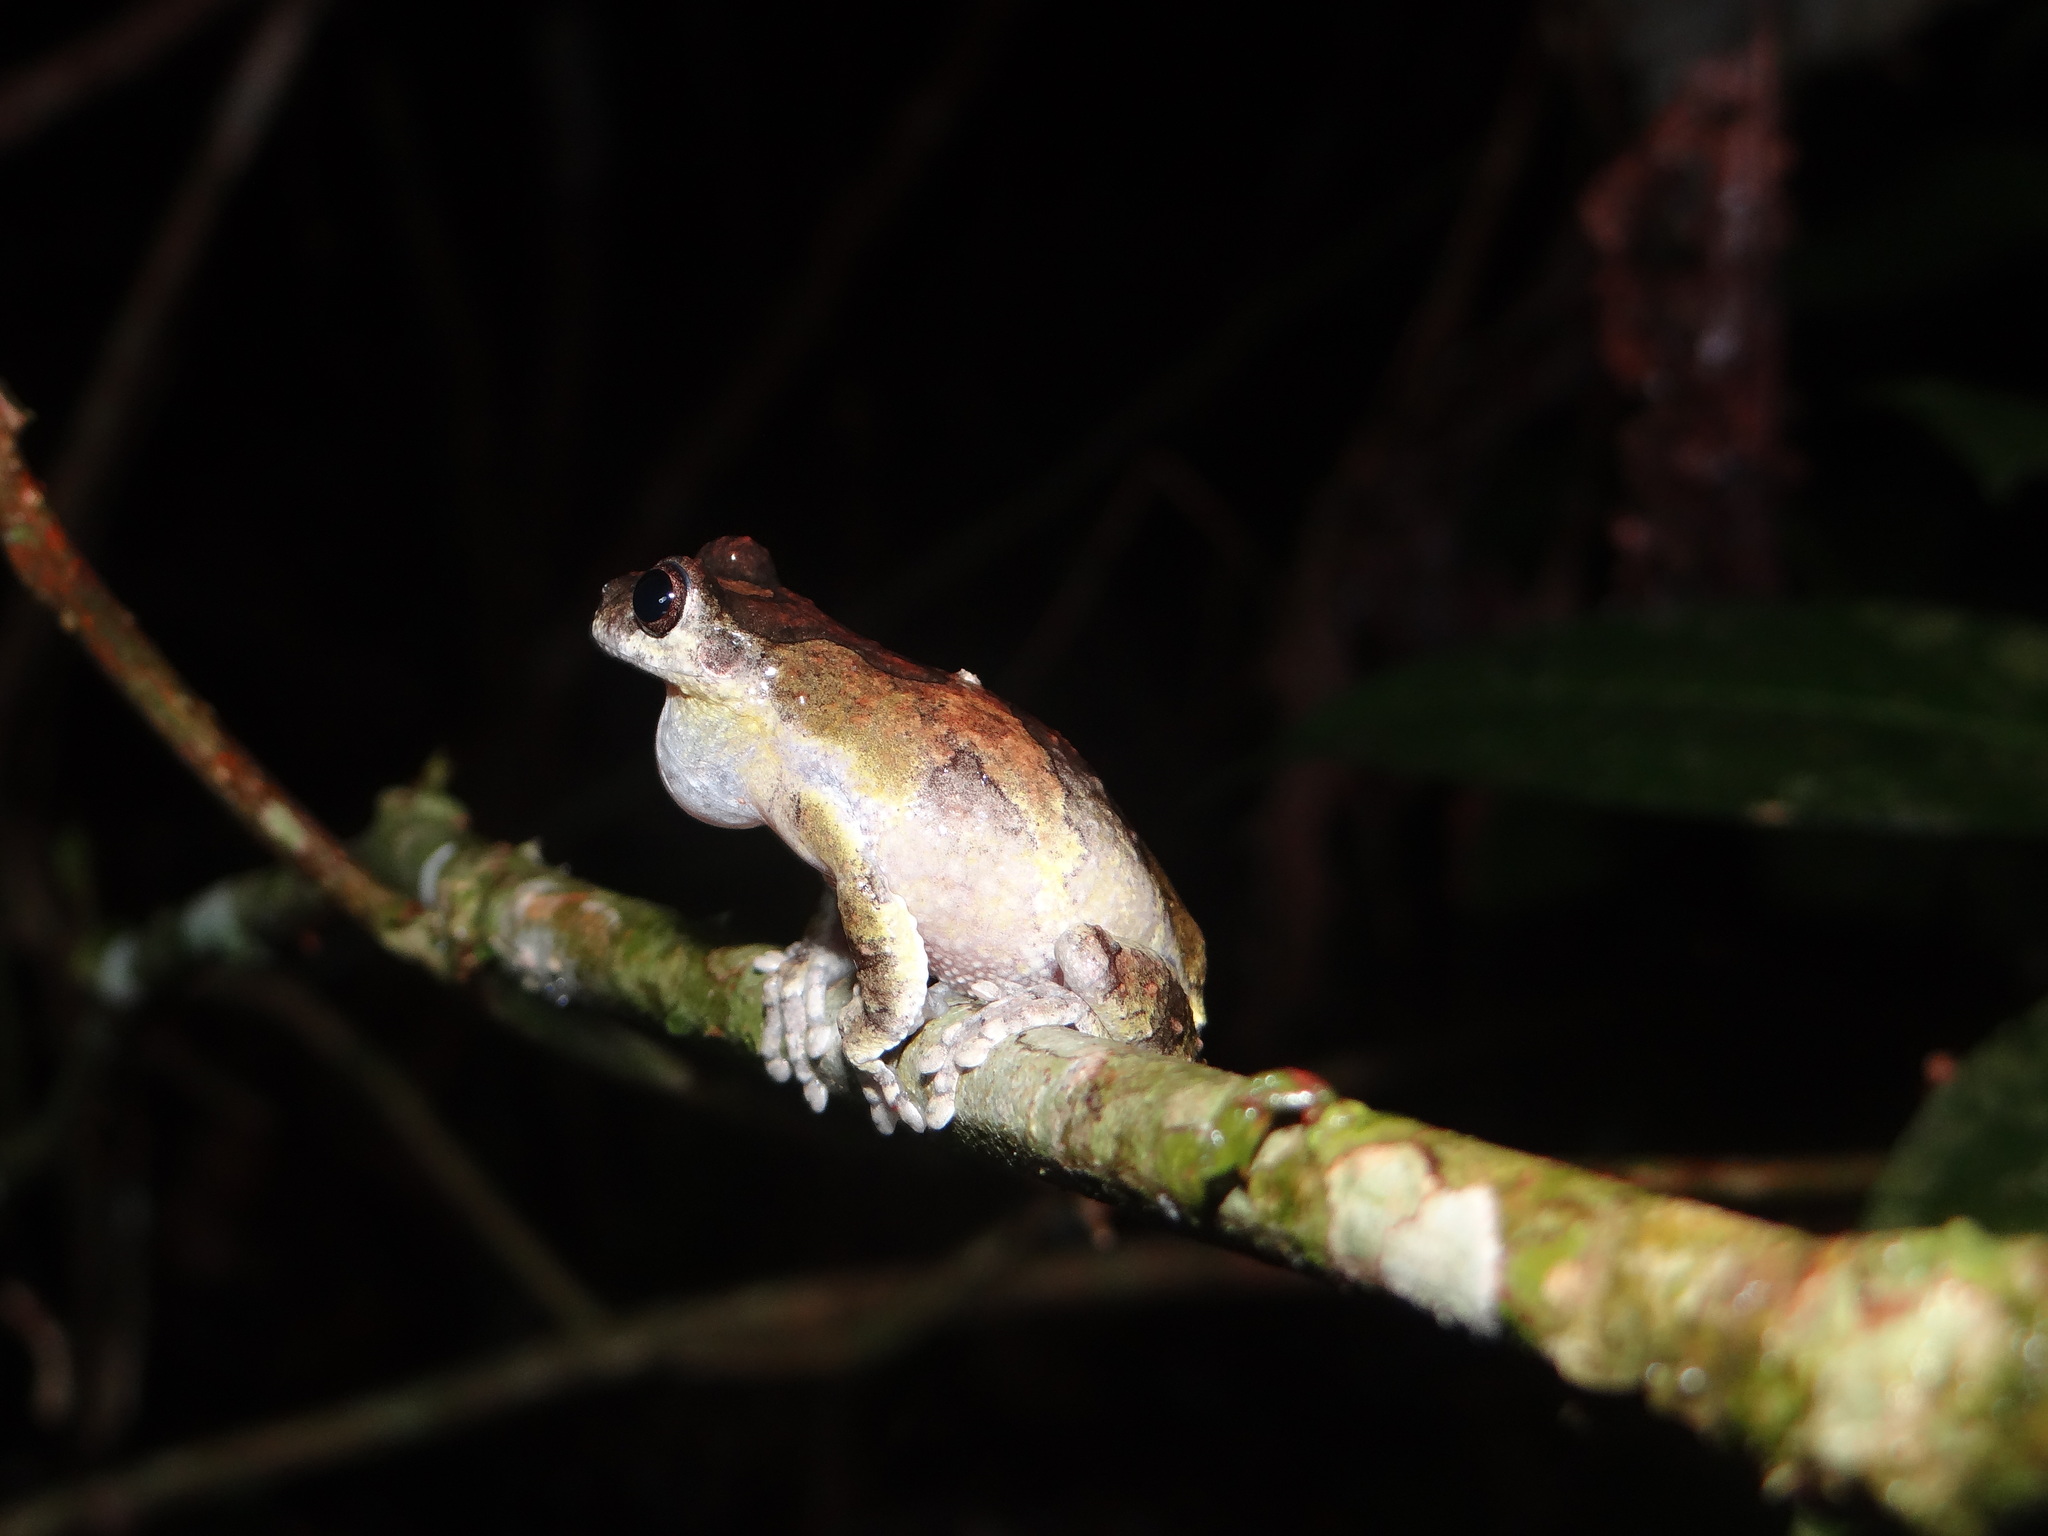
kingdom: Animalia
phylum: Chordata
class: Amphibia
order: Anura
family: Hylidae
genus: Dendropsophus
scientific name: Dendropsophus acreanus
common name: Acre treefrog
